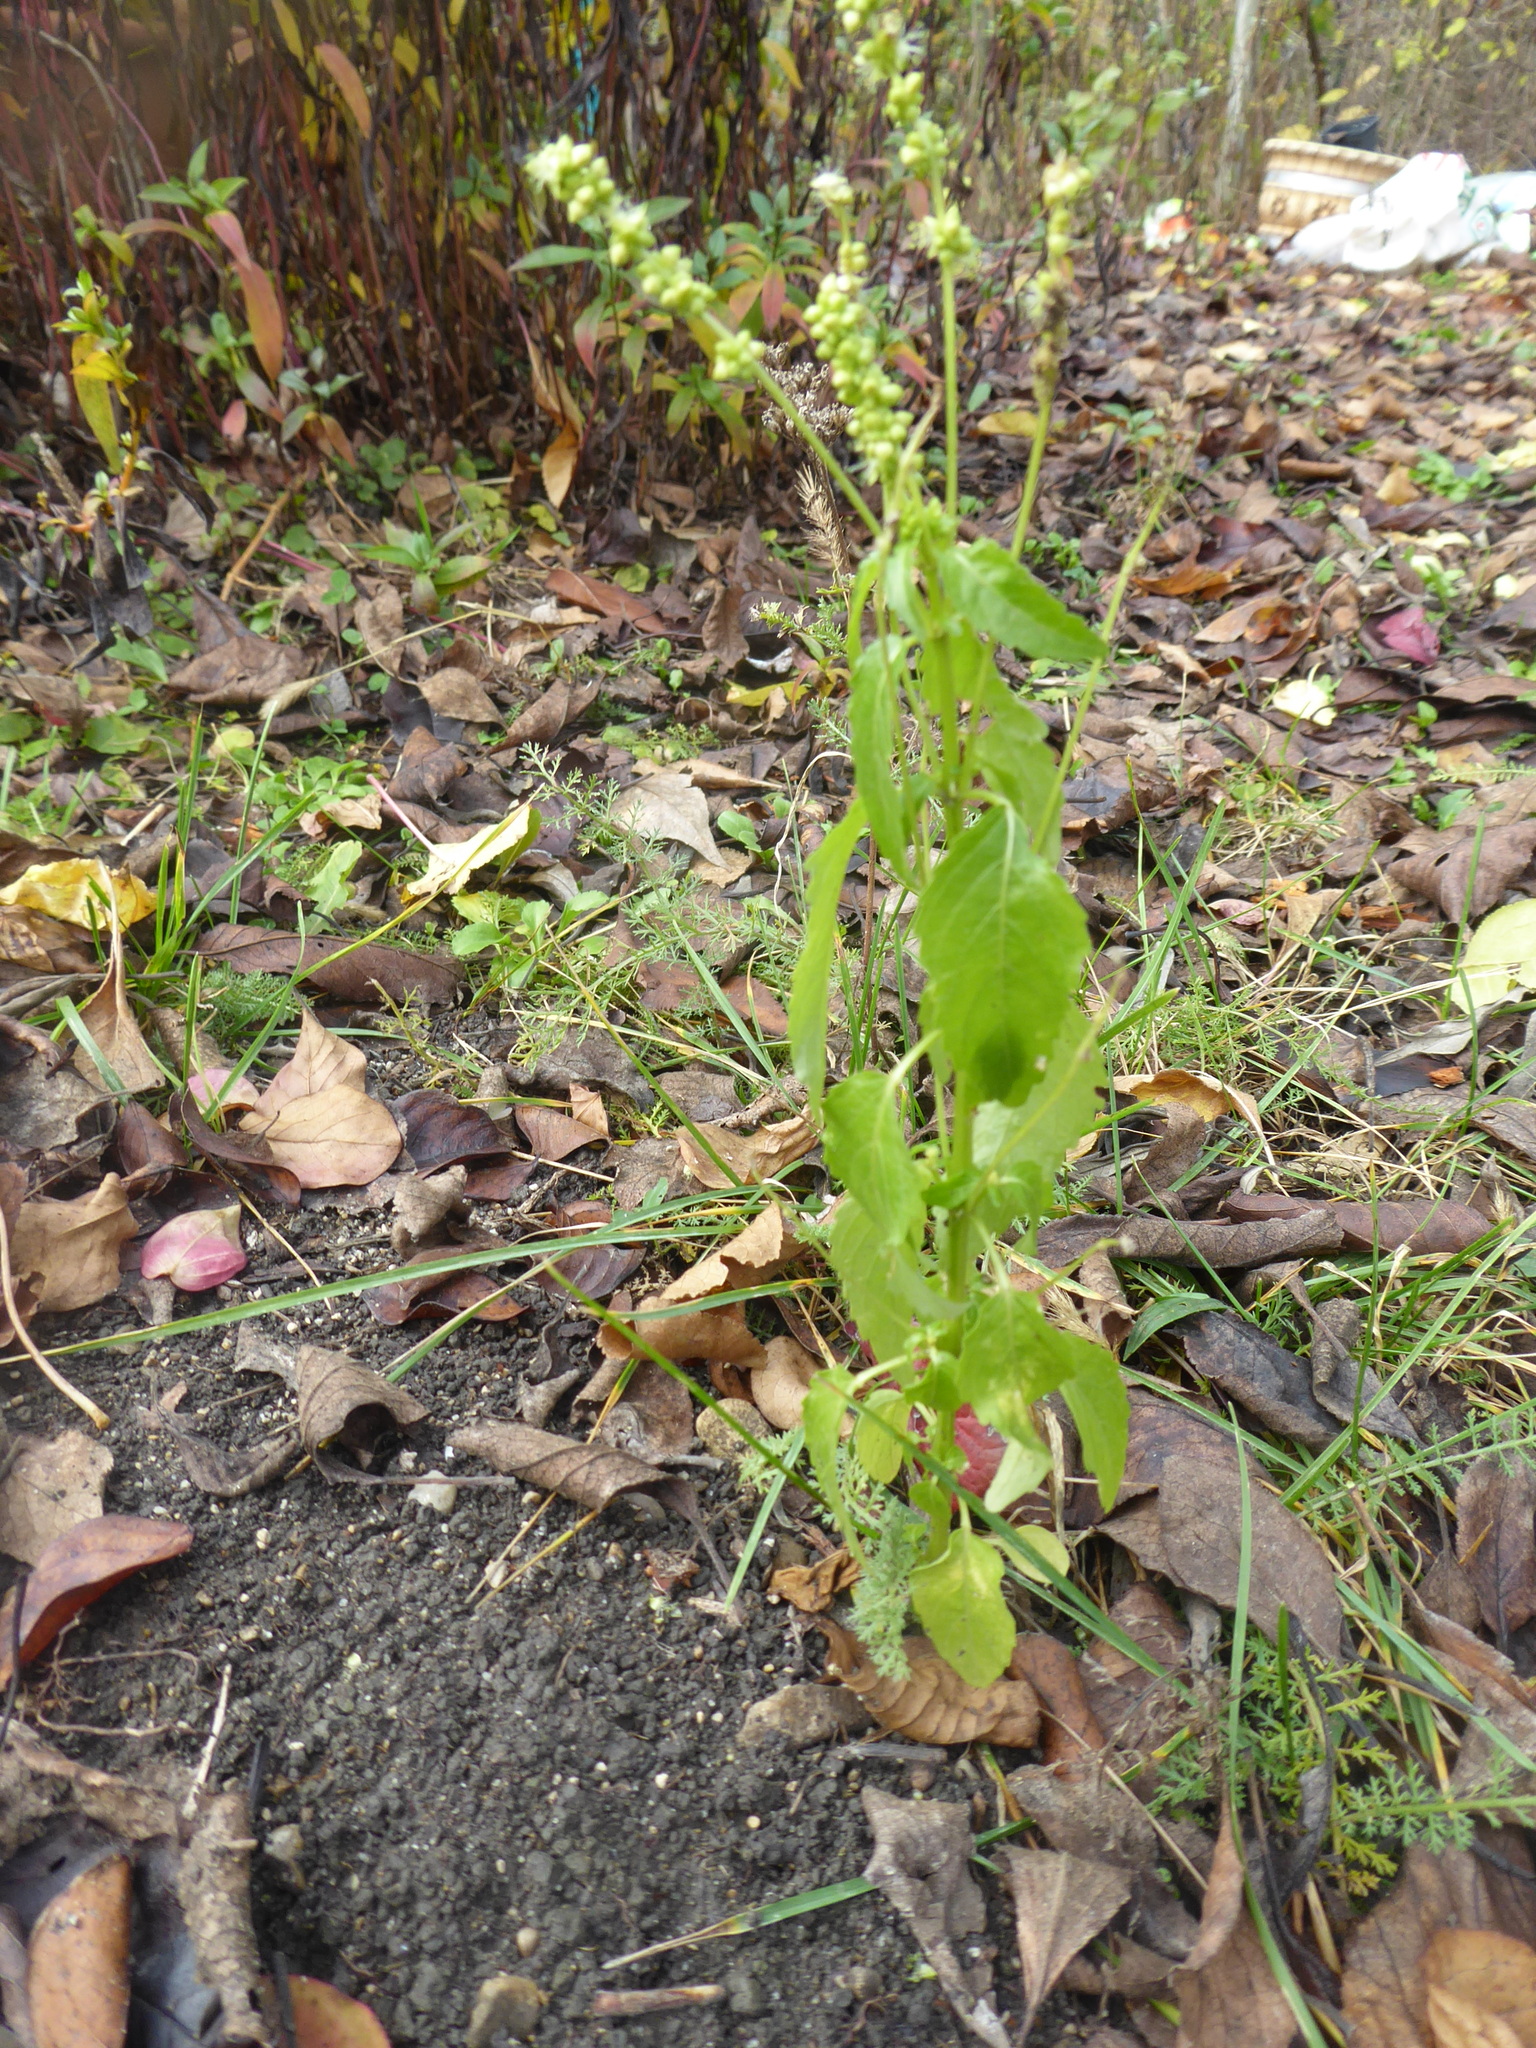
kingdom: Plantae
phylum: Tracheophyta
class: Magnoliopsida
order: Malpighiales
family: Euphorbiaceae
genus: Mercurialis
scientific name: Mercurialis annua
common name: Annual mercury
